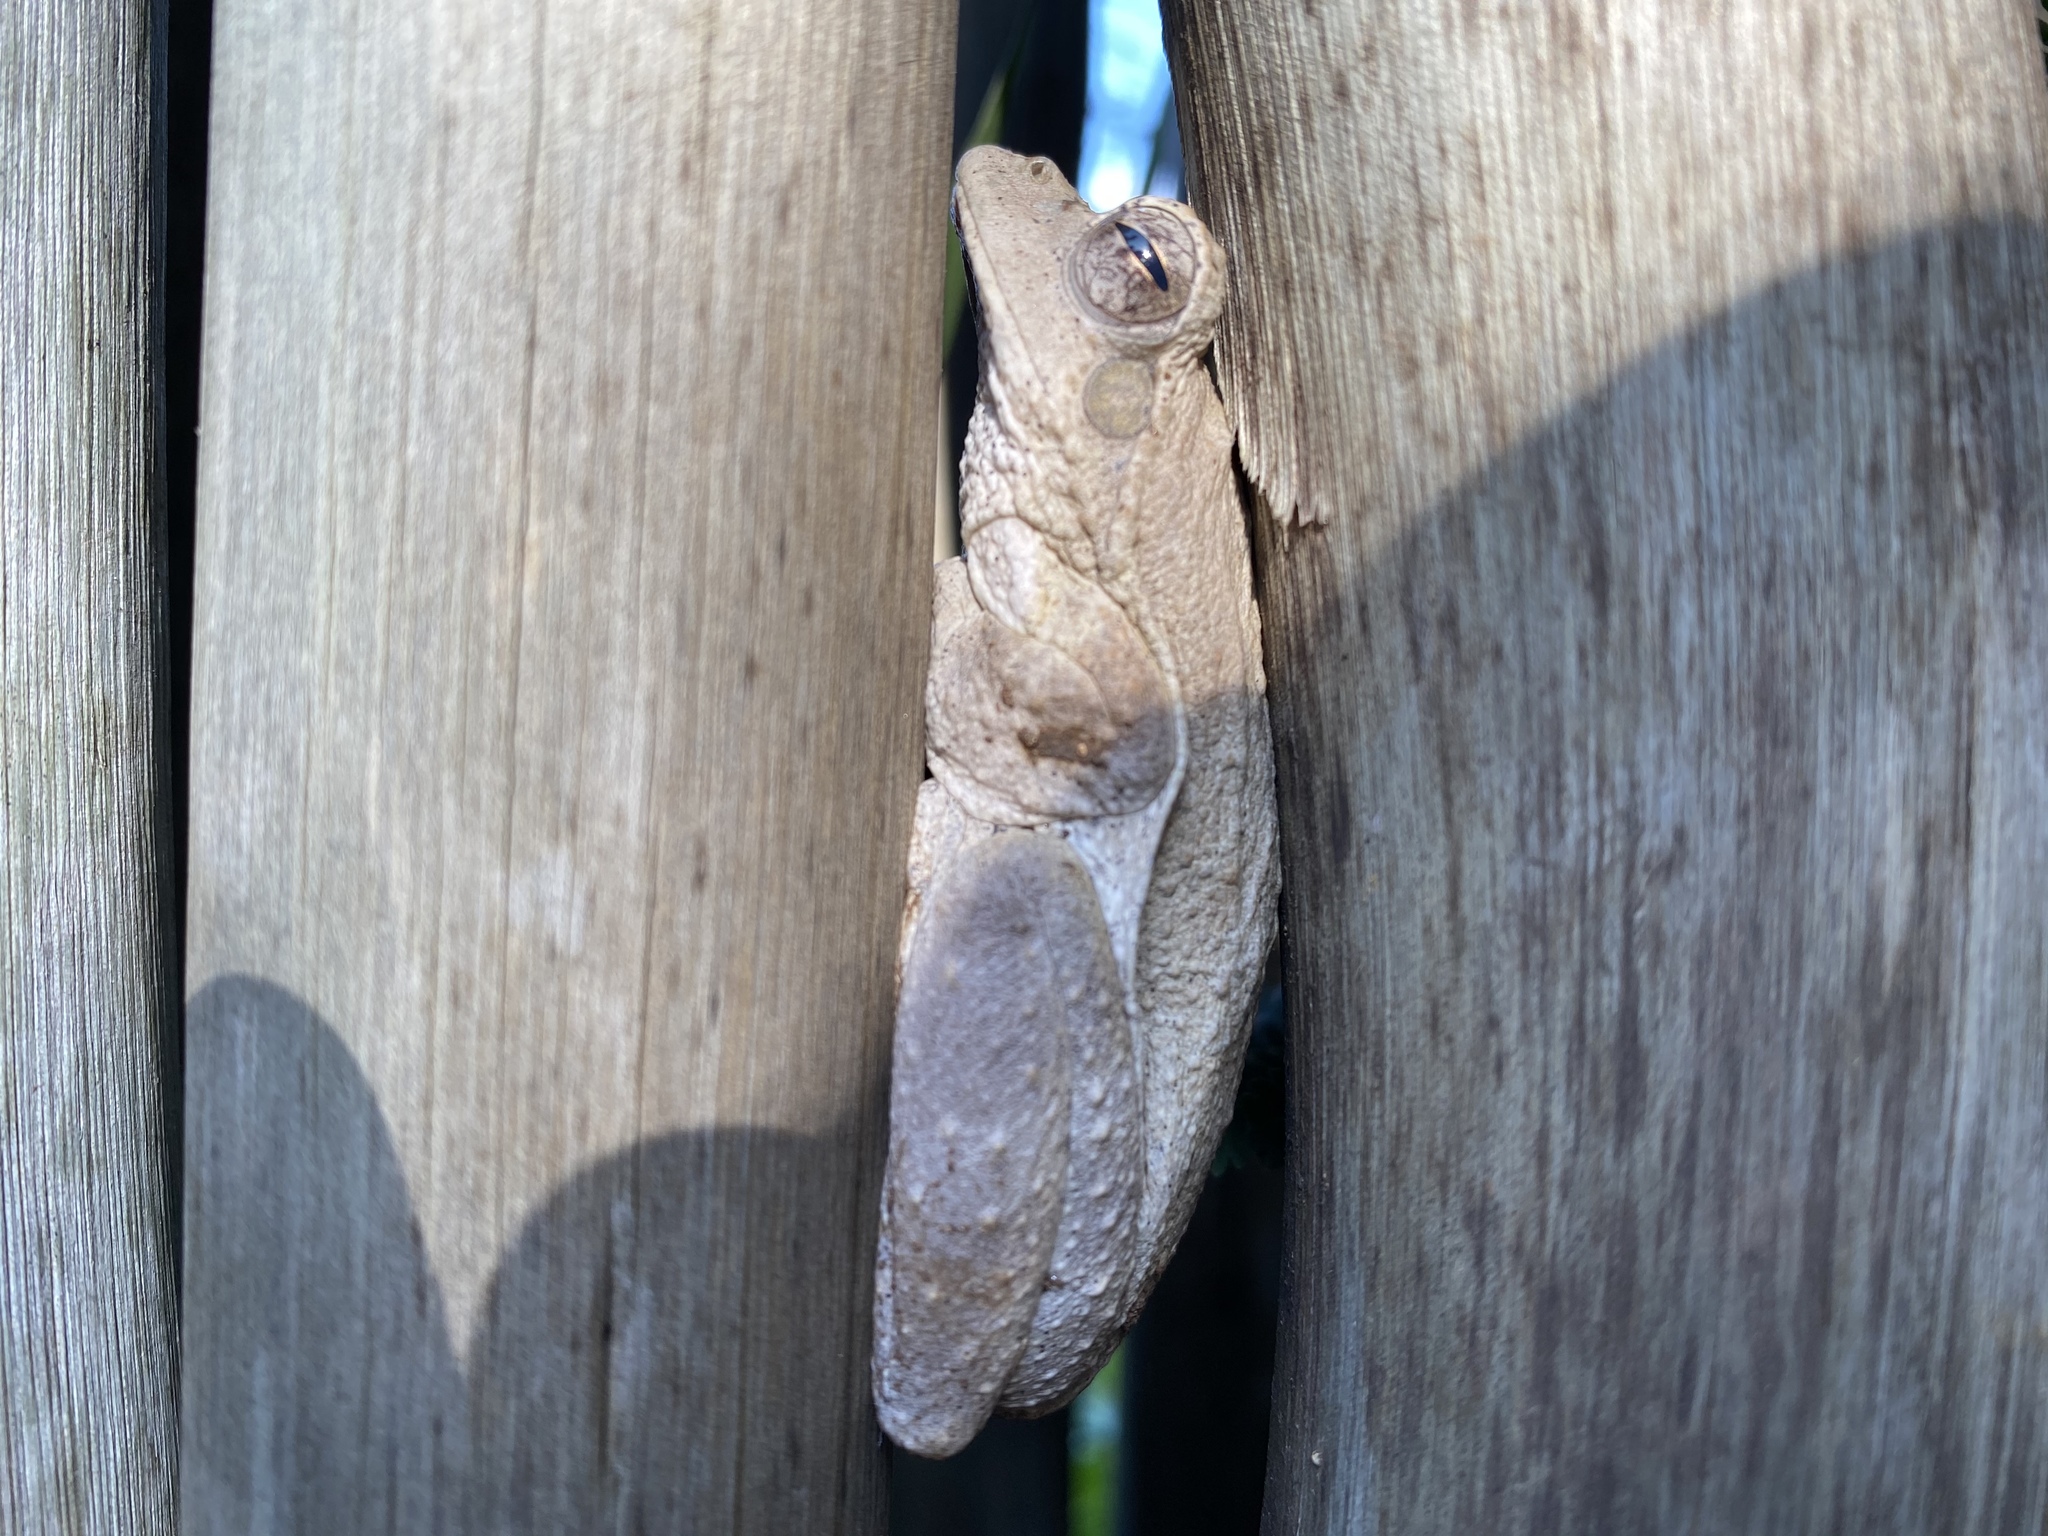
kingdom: Animalia
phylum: Chordata
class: Amphibia
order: Anura
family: Rhacophoridae
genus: Chiromantis
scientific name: Chiromantis xerampelina
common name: African gray treefrog
